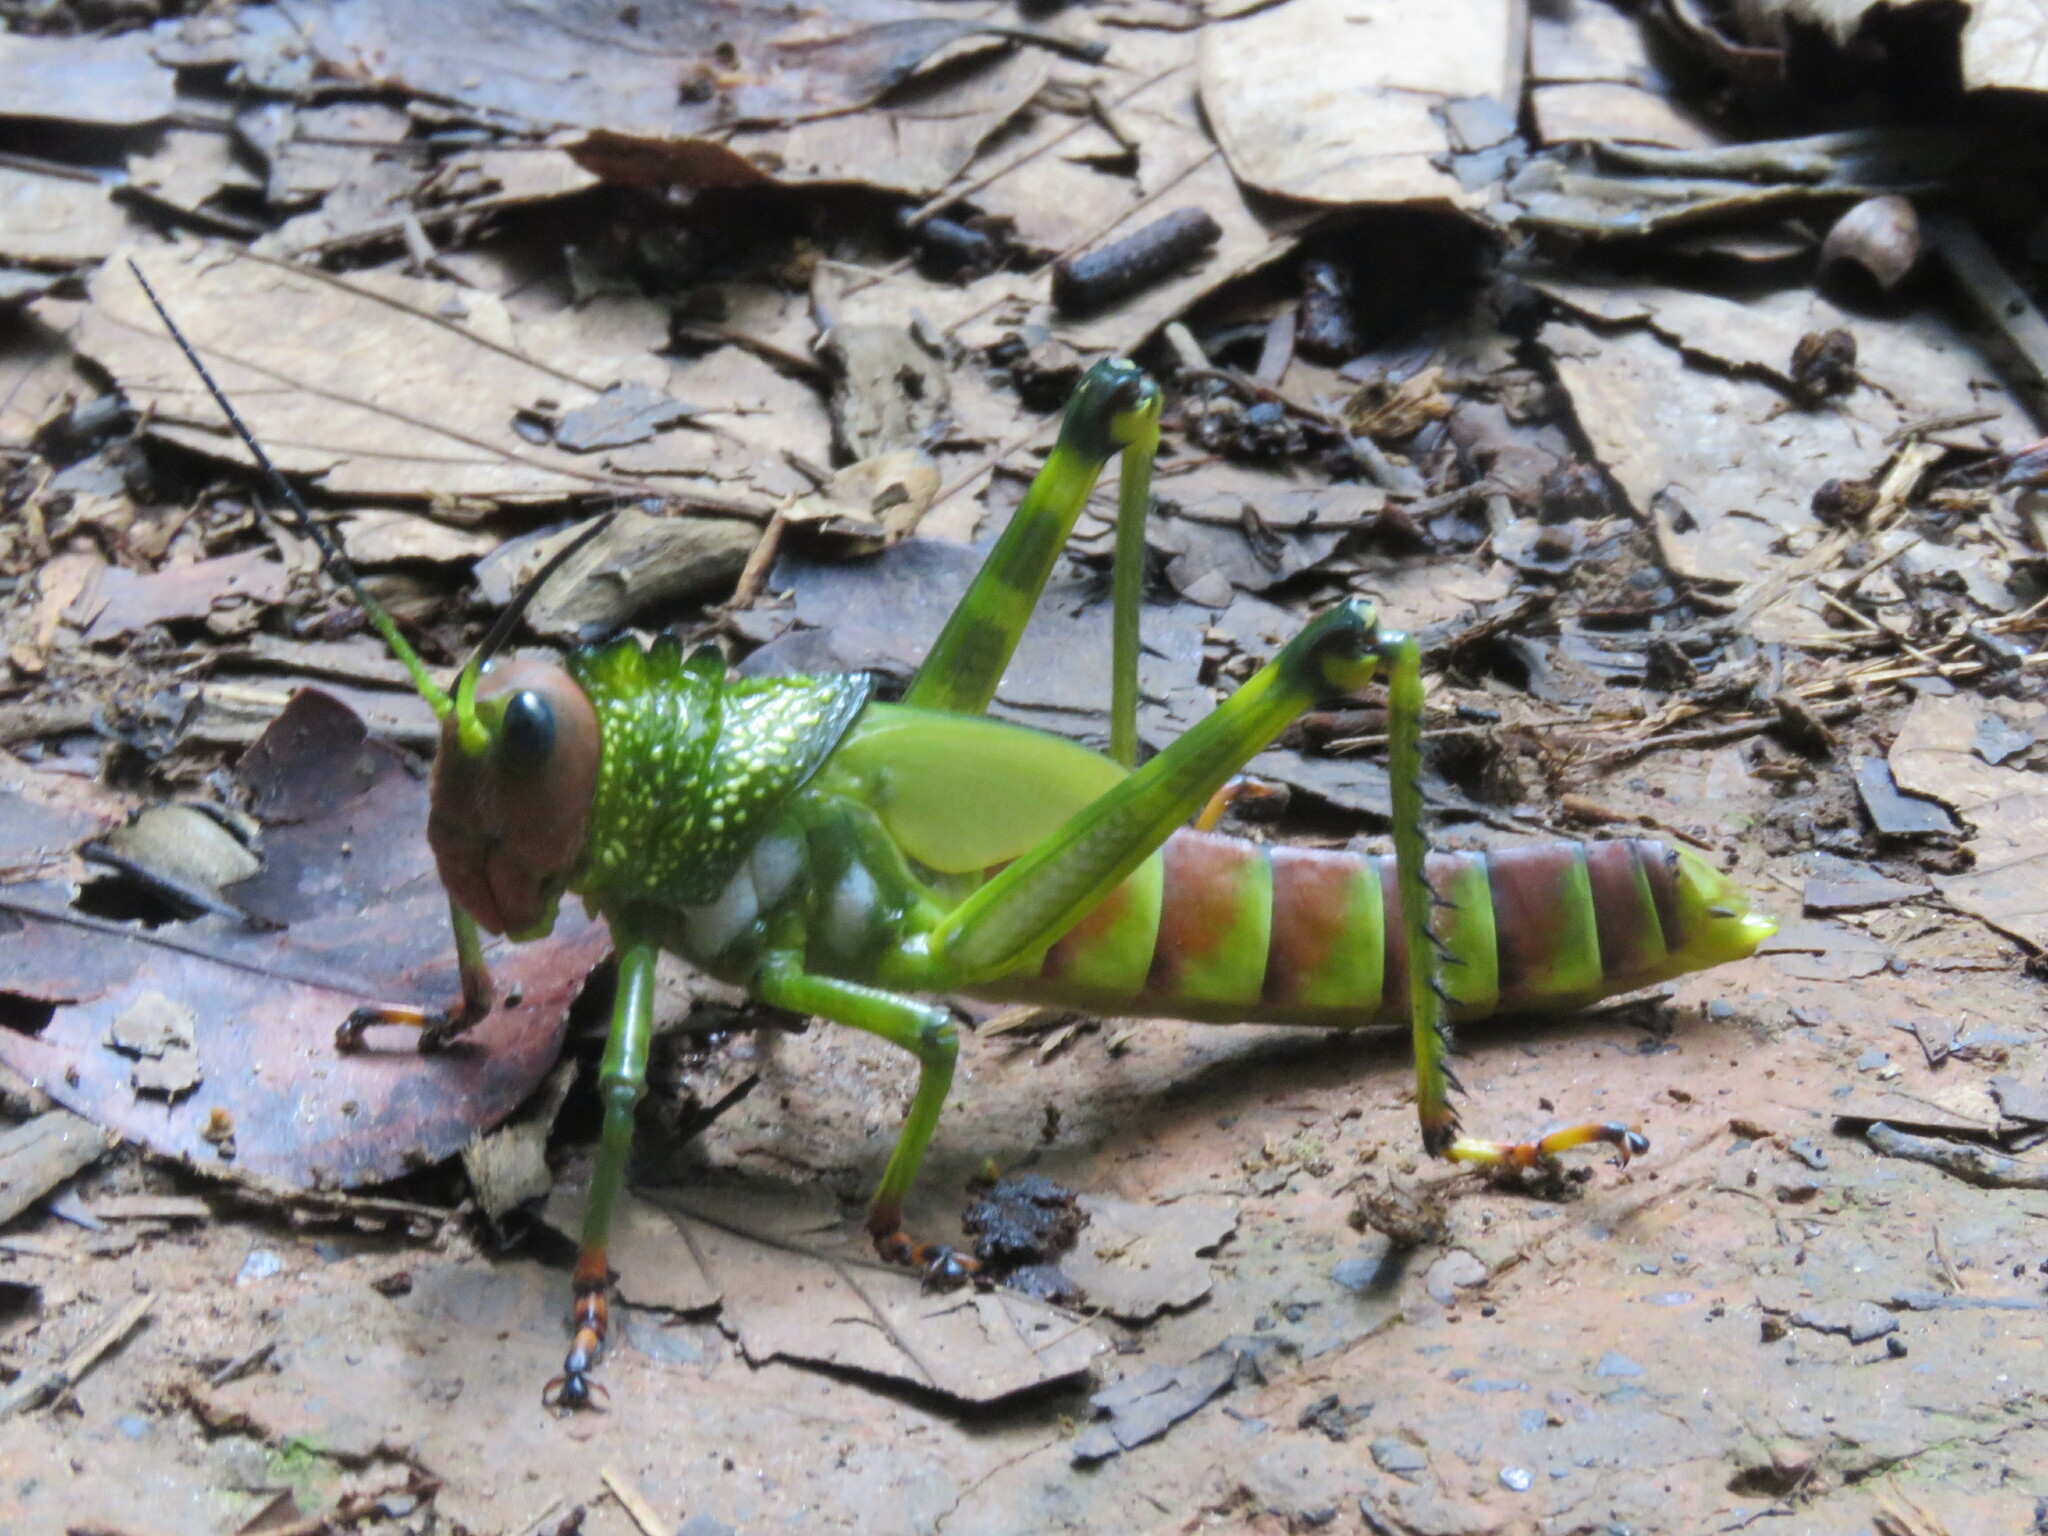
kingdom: Animalia
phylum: Arthropoda
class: Insecta
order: Orthoptera
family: Romaleidae
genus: Tropidacris
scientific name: Tropidacris cristata
